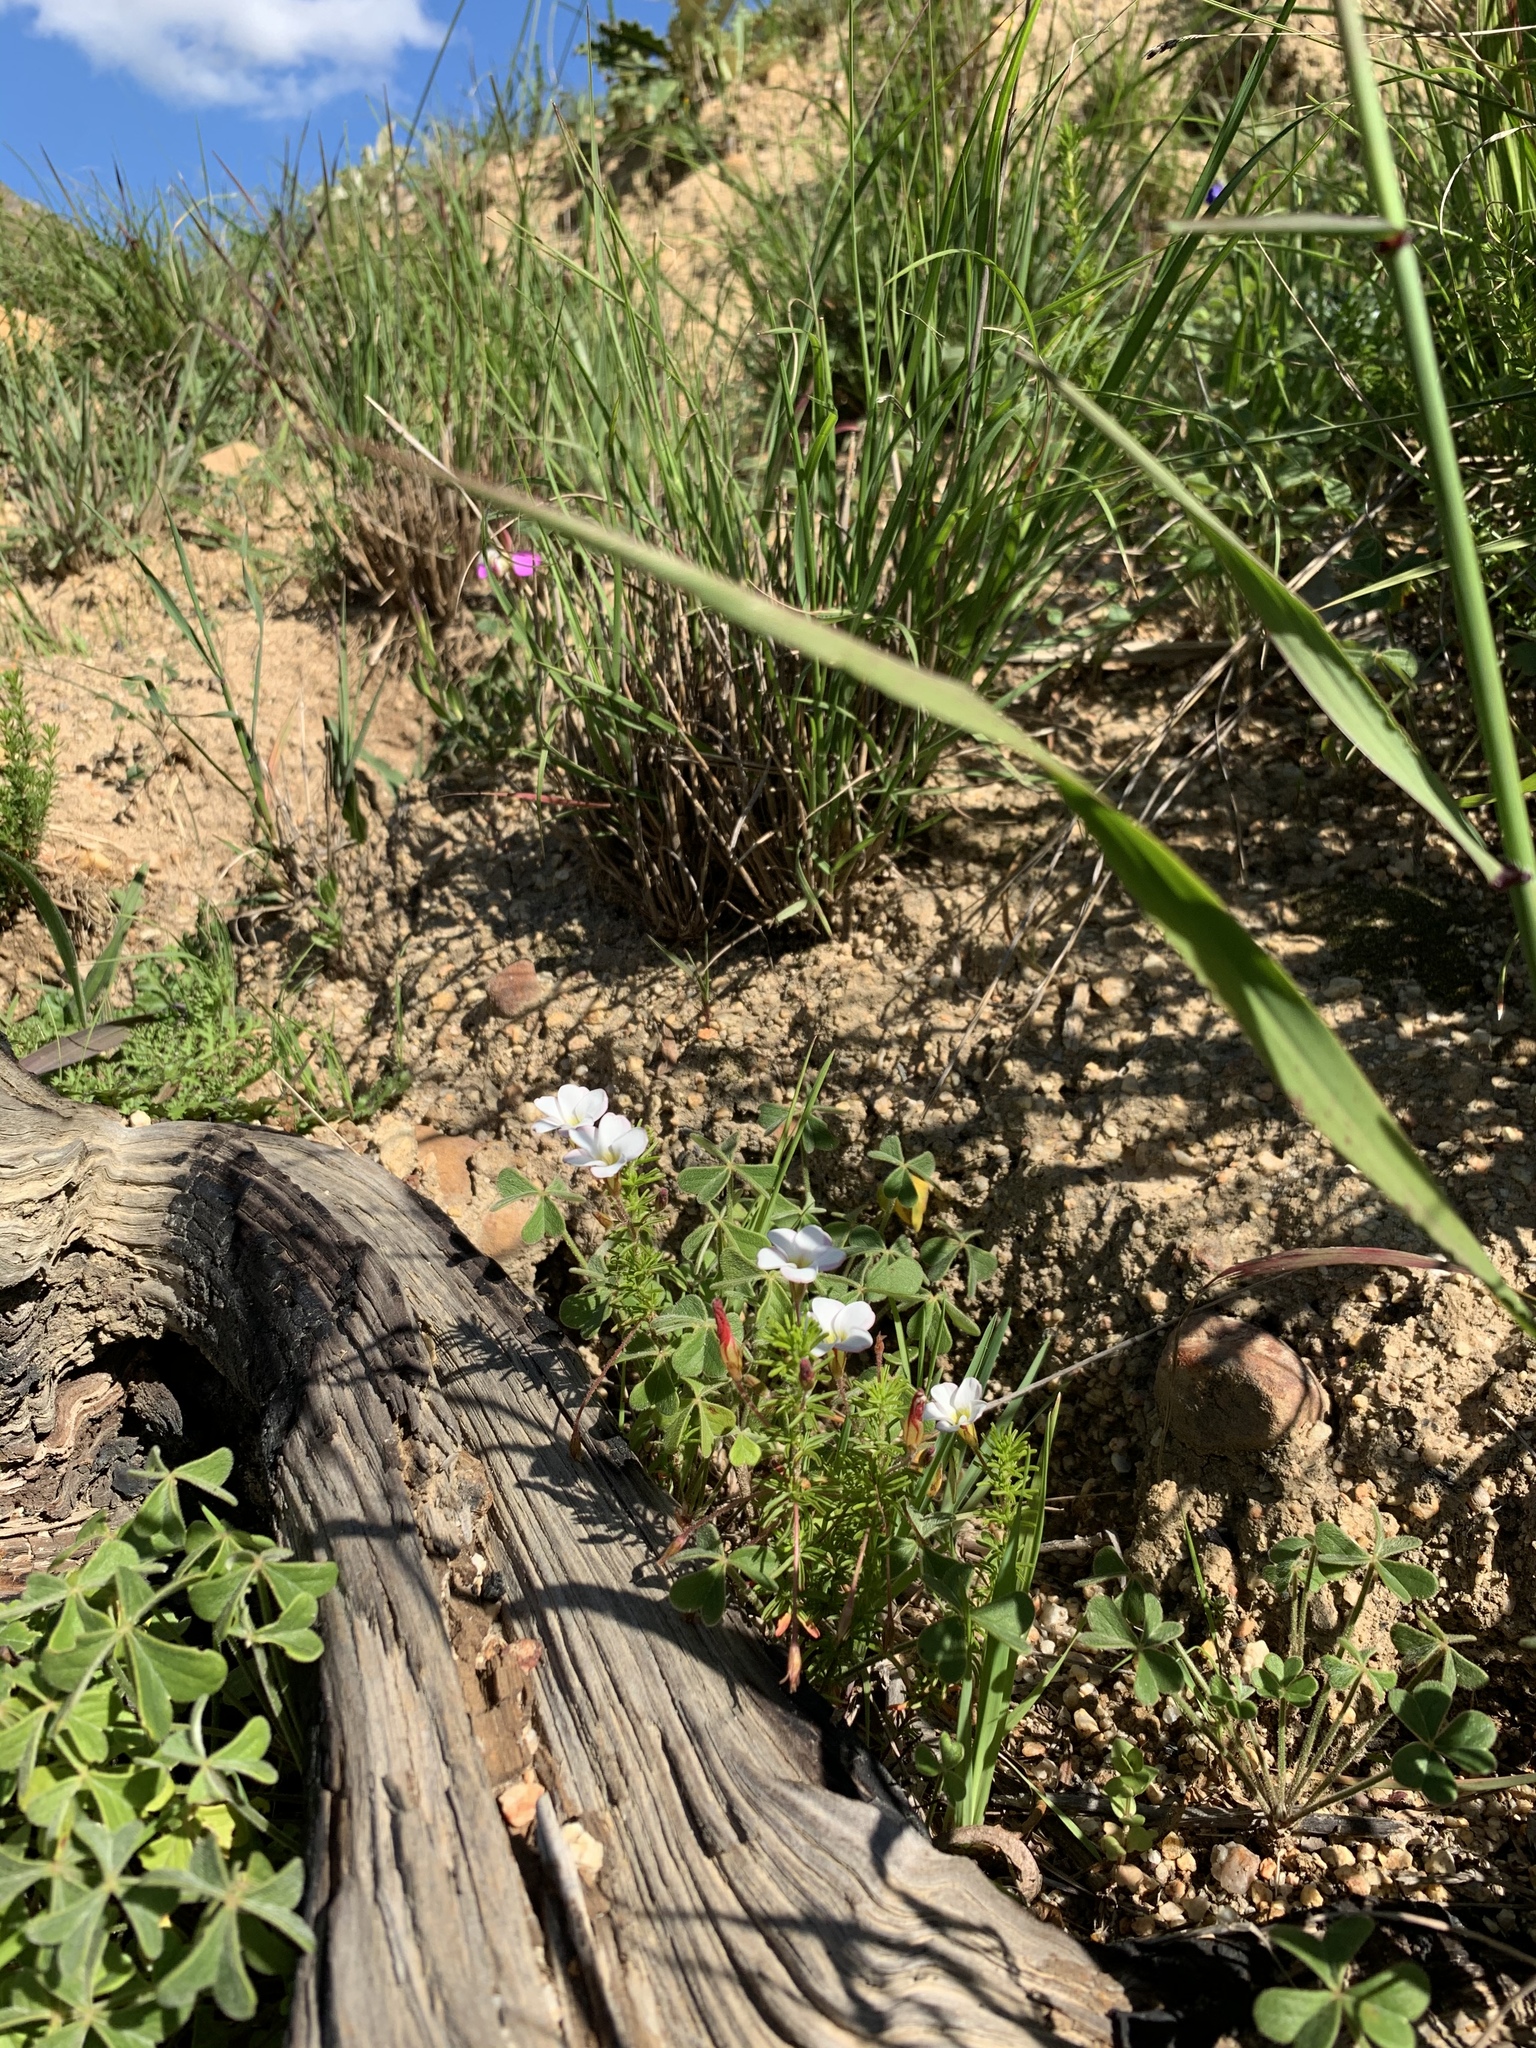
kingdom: Plantae
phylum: Tracheophyta
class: Magnoliopsida
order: Oxalidales
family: Oxalidaceae
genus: Oxalis
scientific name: Oxalis tenuifolia
